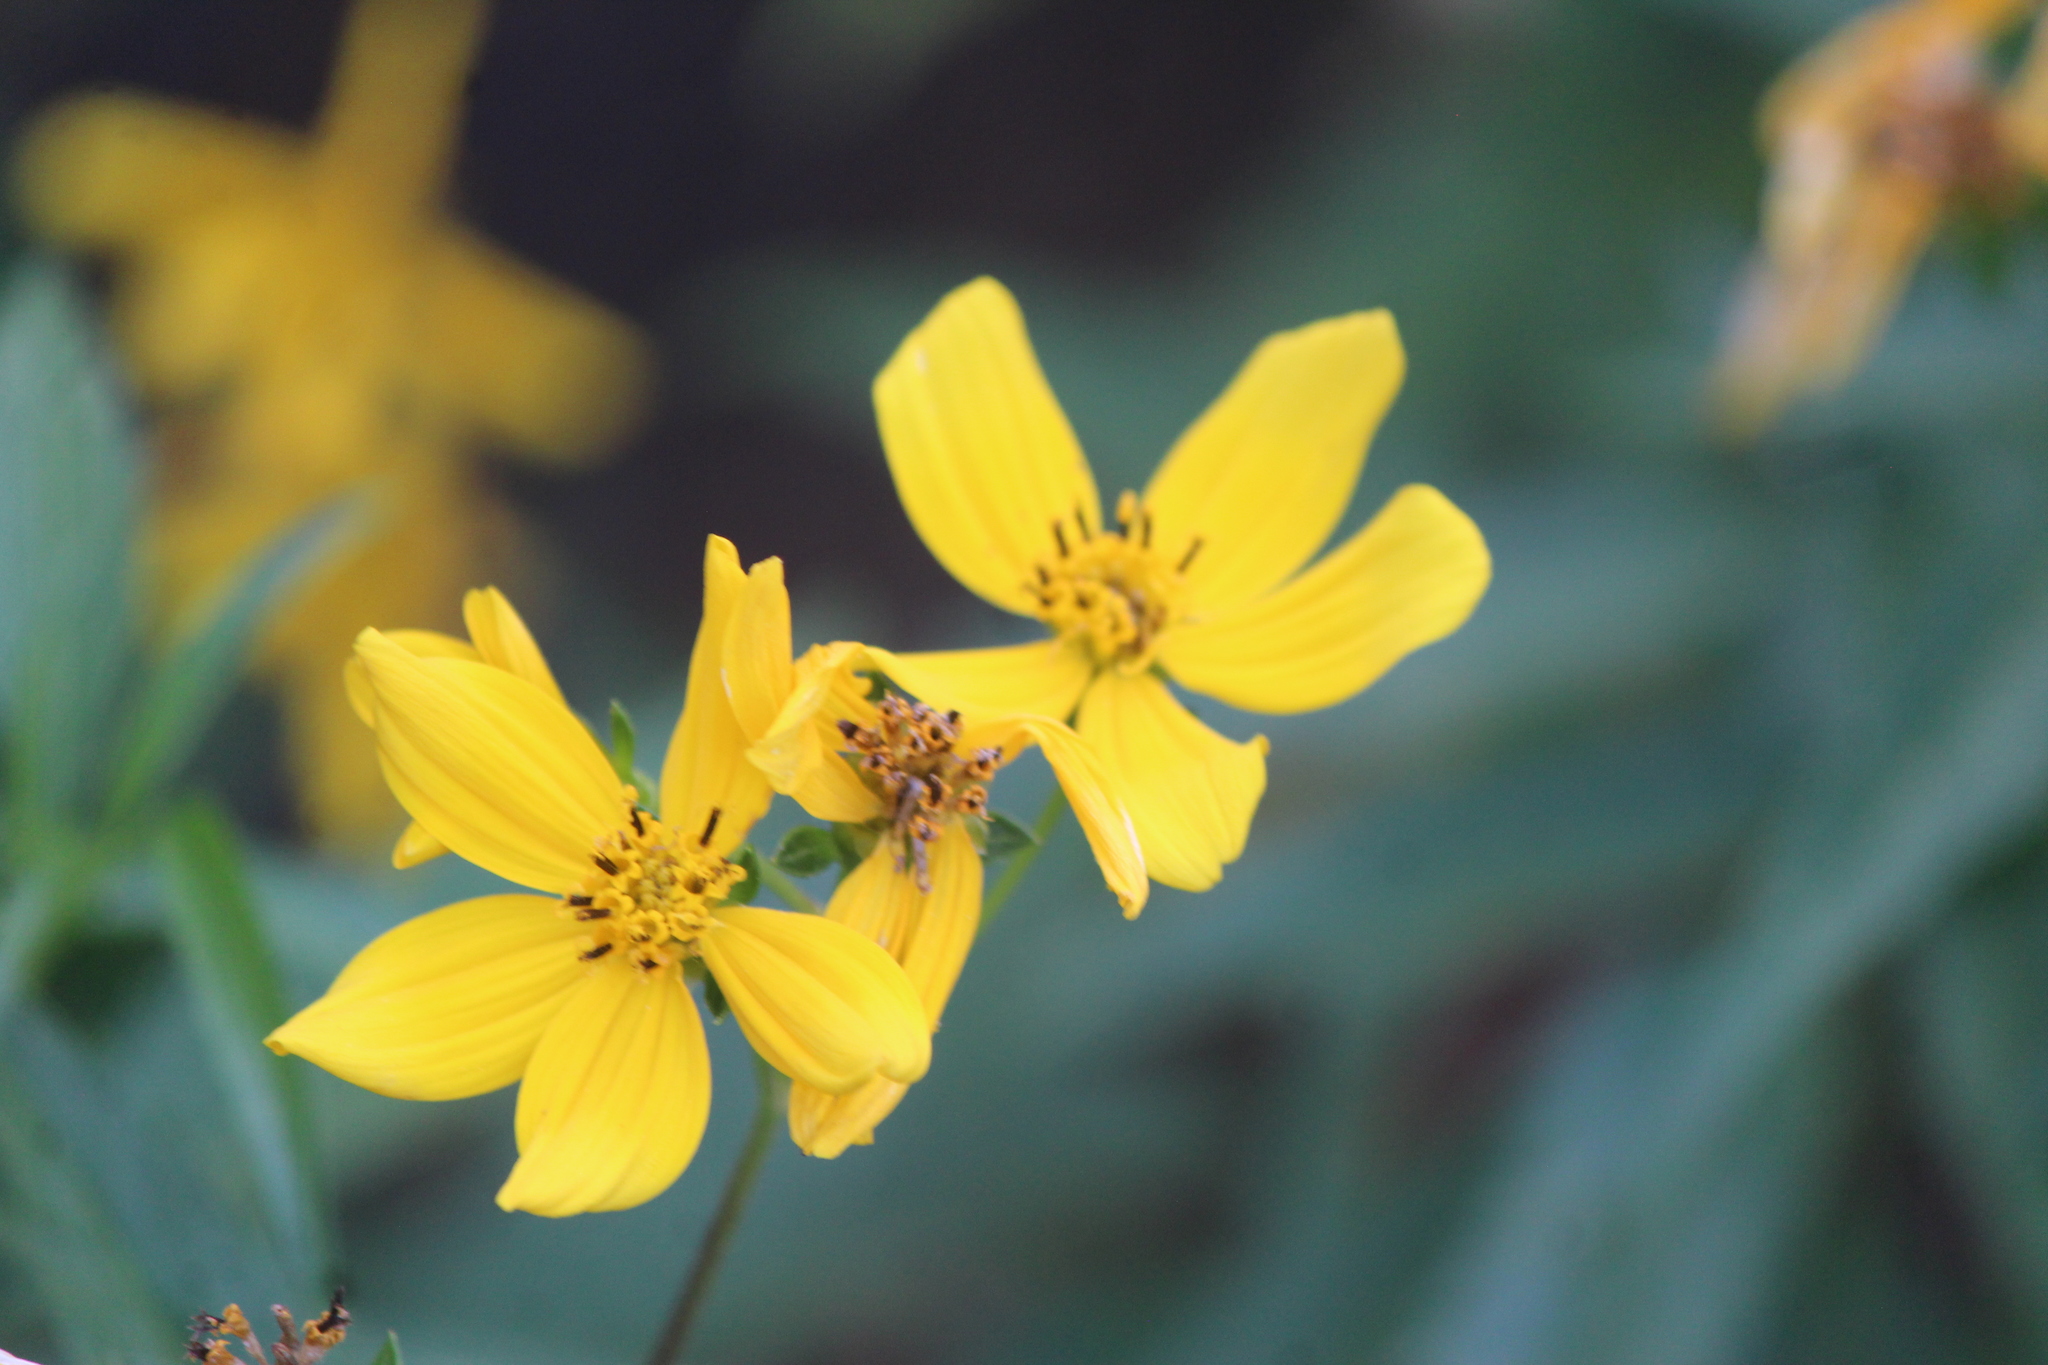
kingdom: Plantae
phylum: Tracheophyta
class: Magnoliopsida
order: Asterales
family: Asteraceae
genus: Electranthera
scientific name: Electranthera mutica
